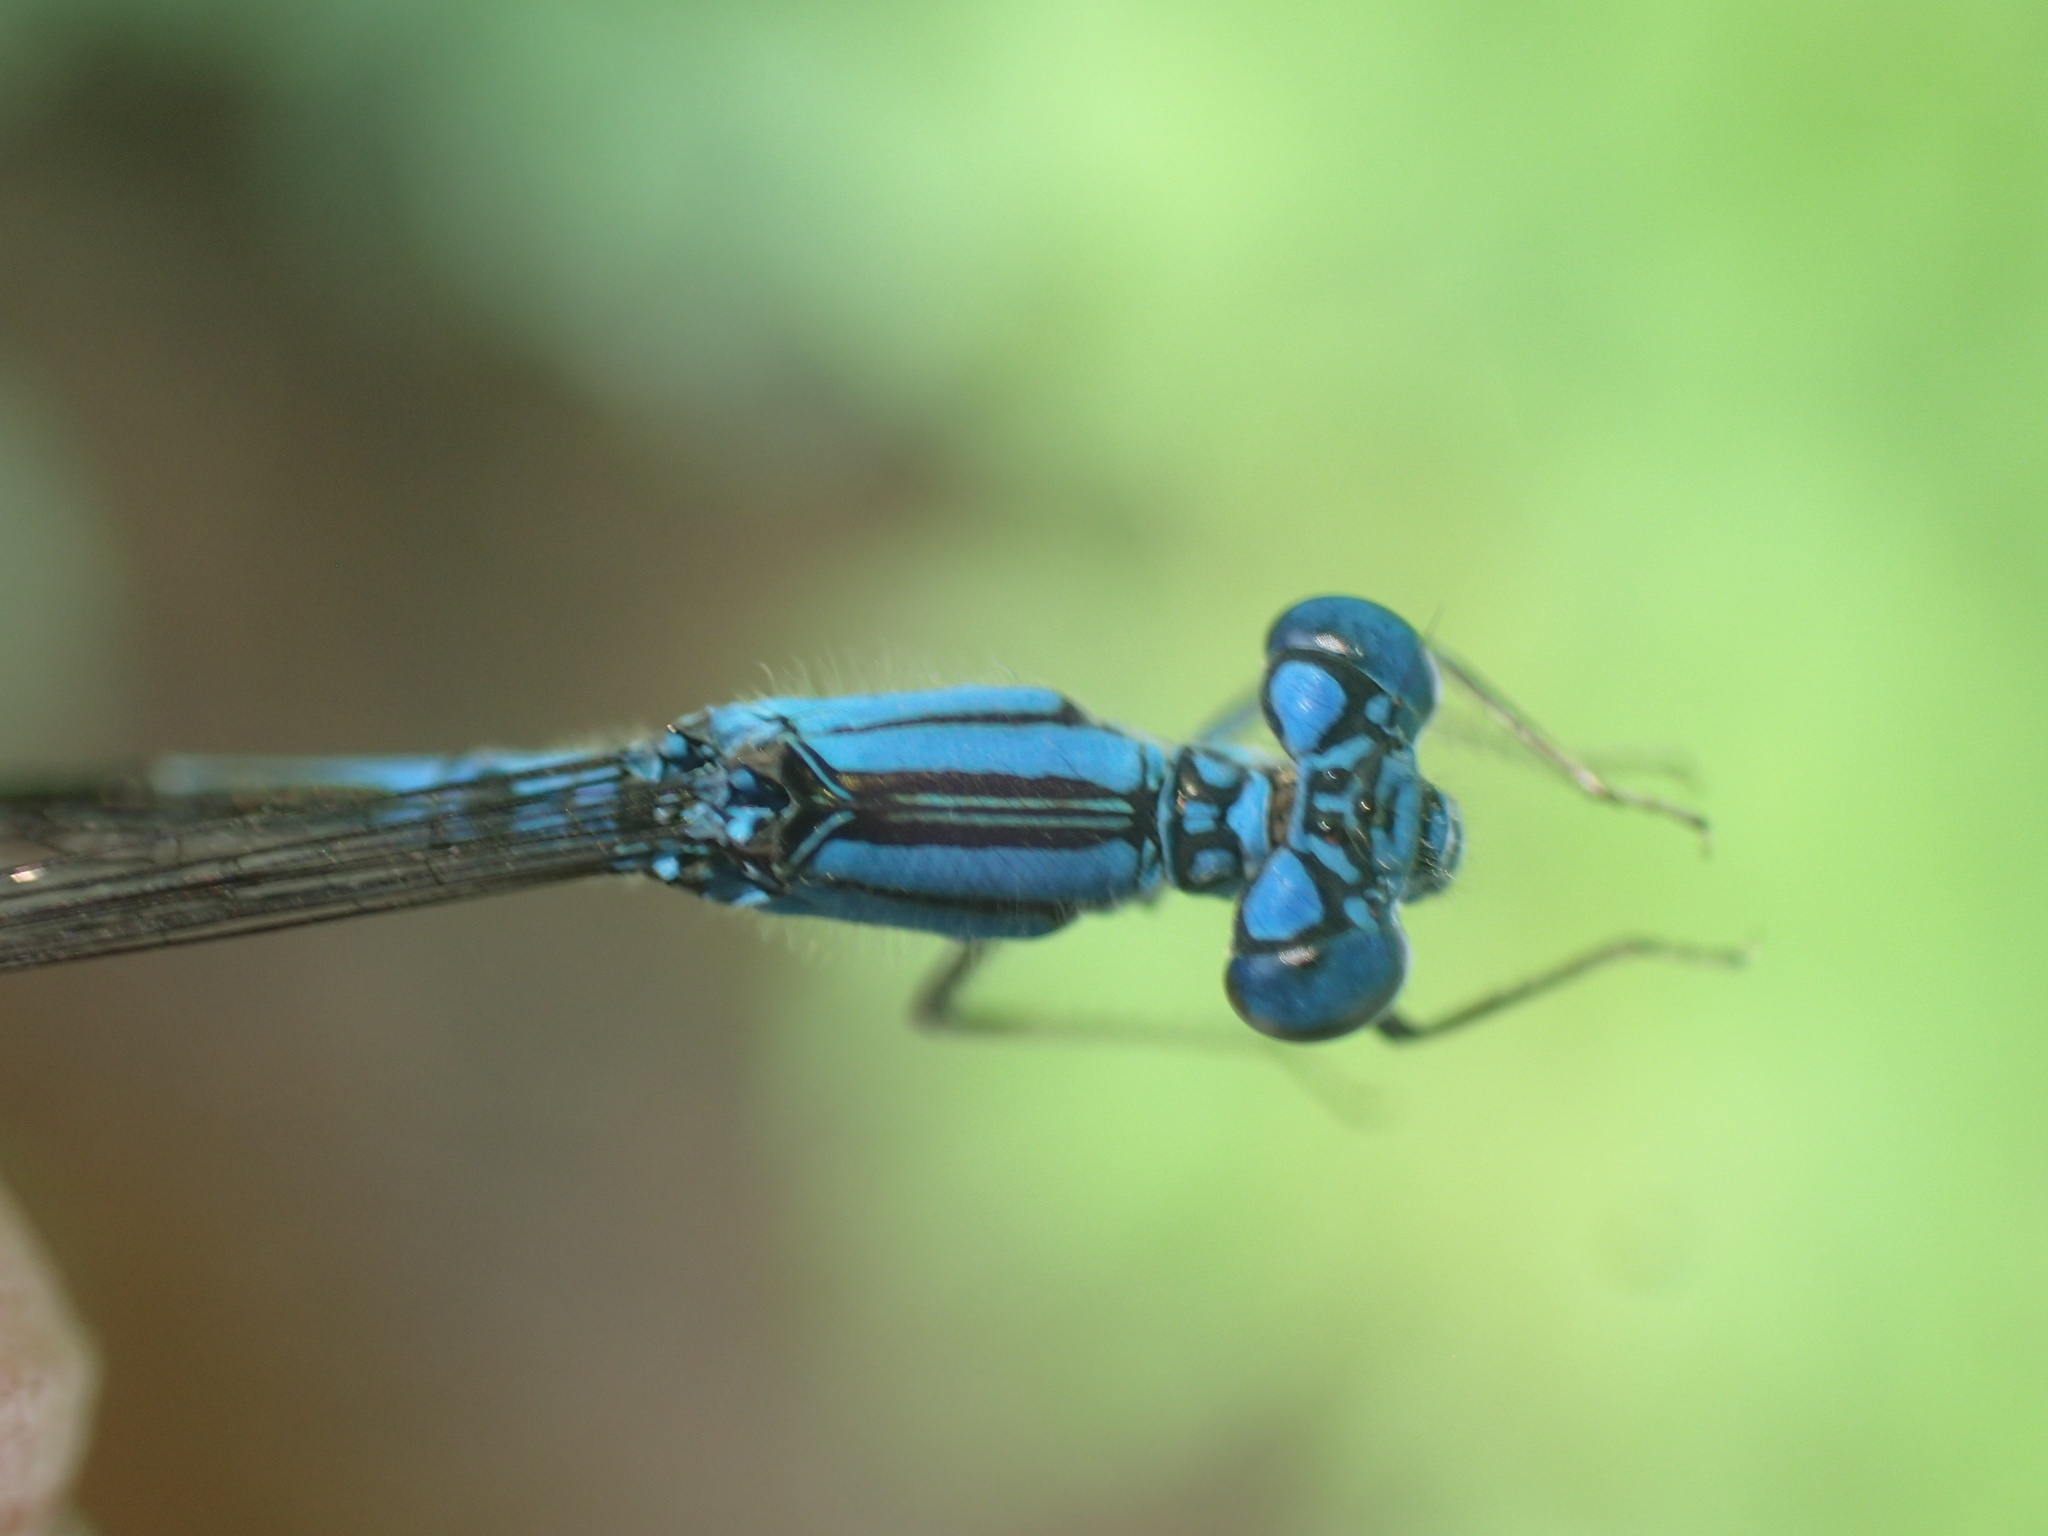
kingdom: Animalia
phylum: Arthropoda
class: Insecta
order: Odonata
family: Coenagrionidae
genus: Enallagma
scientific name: Enallagma traviatum
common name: Slender bluet
